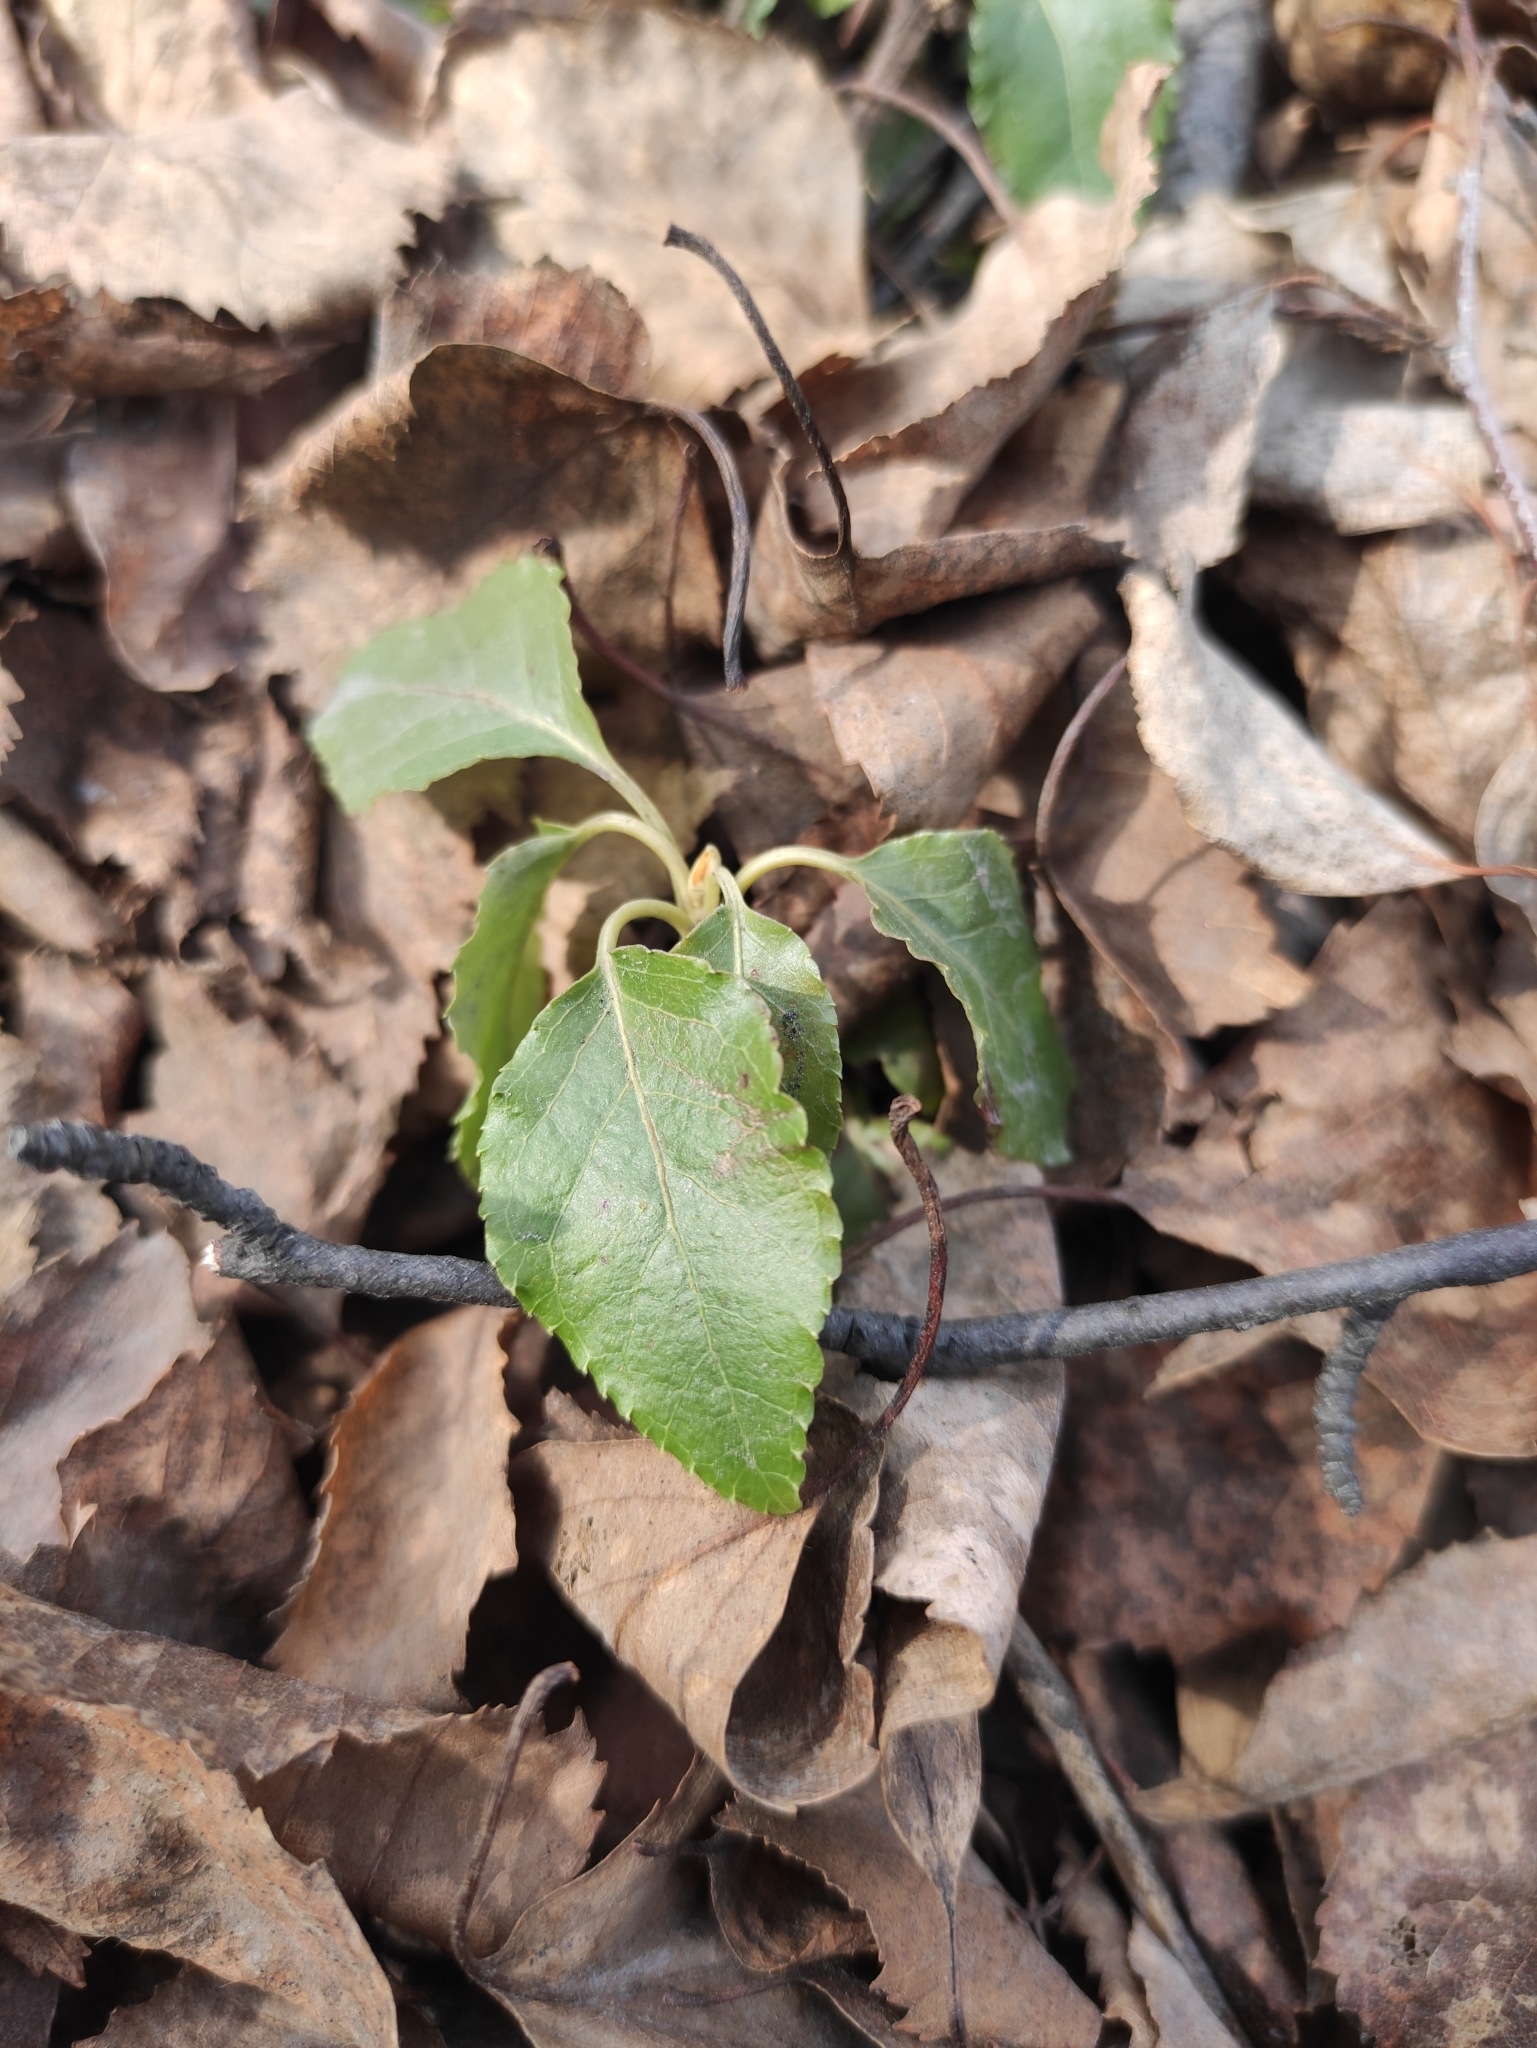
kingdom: Plantae
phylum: Tracheophyta
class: Magnoliopsida
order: Ericales
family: Ericaceae
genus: Orthilia
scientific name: Orthilia secunda
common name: One-sided orthilia
